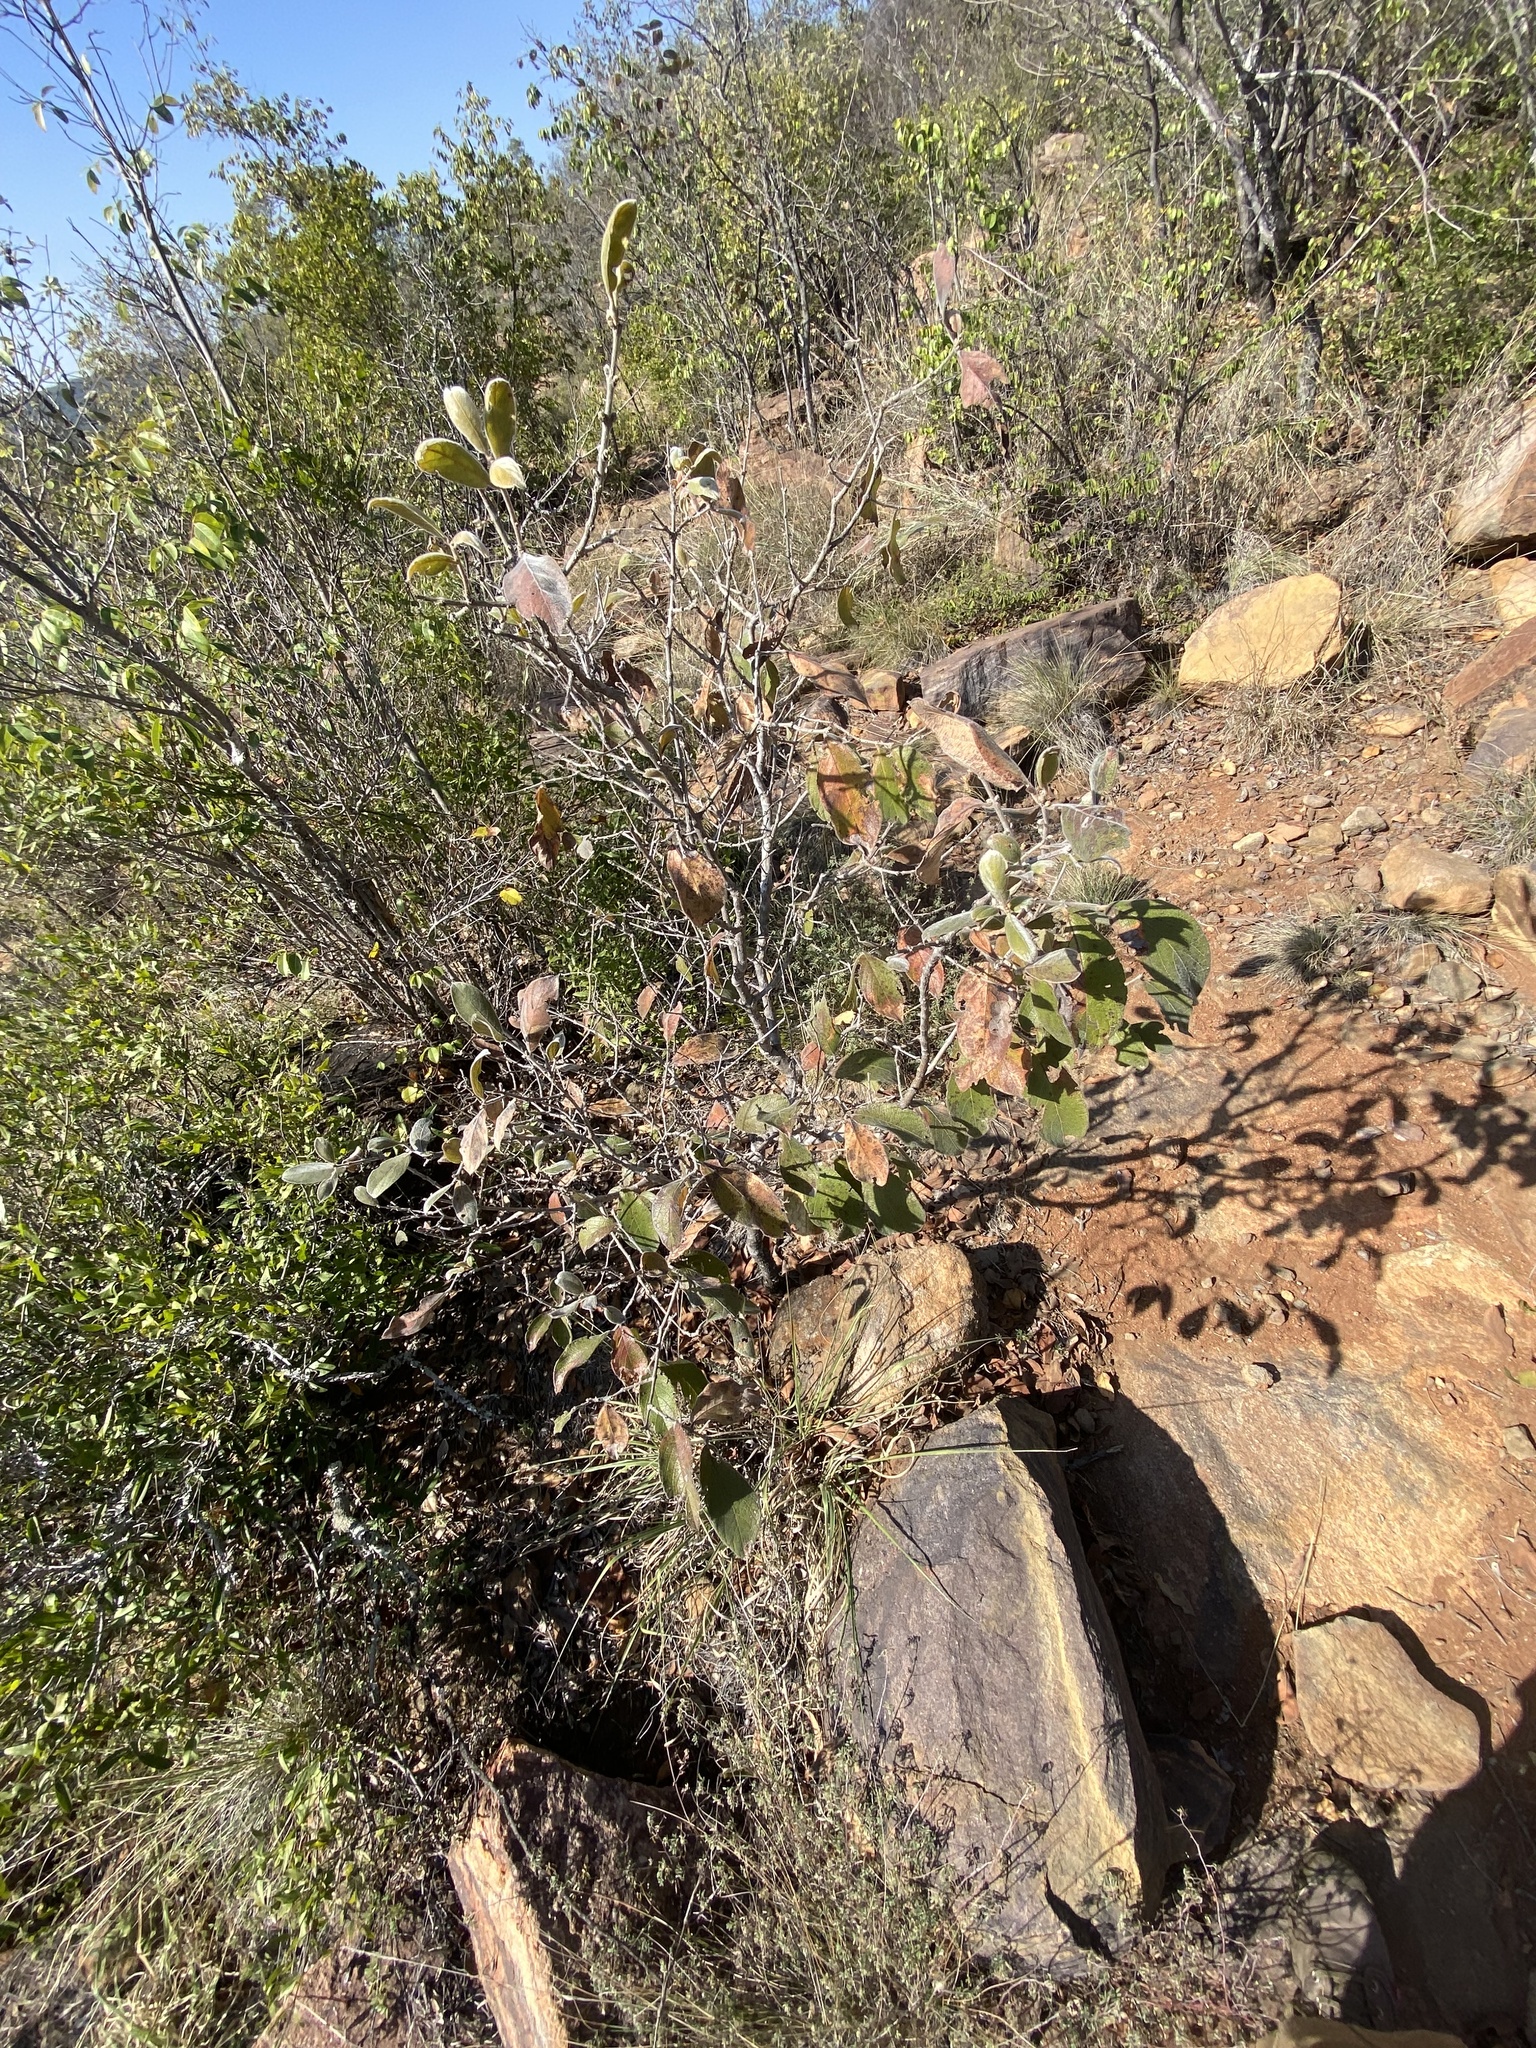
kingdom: Plantae
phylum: Tracheophyta
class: Magnoliopsida
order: Myrtales
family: Combretaceae
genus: Combretum
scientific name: Combretum molle
